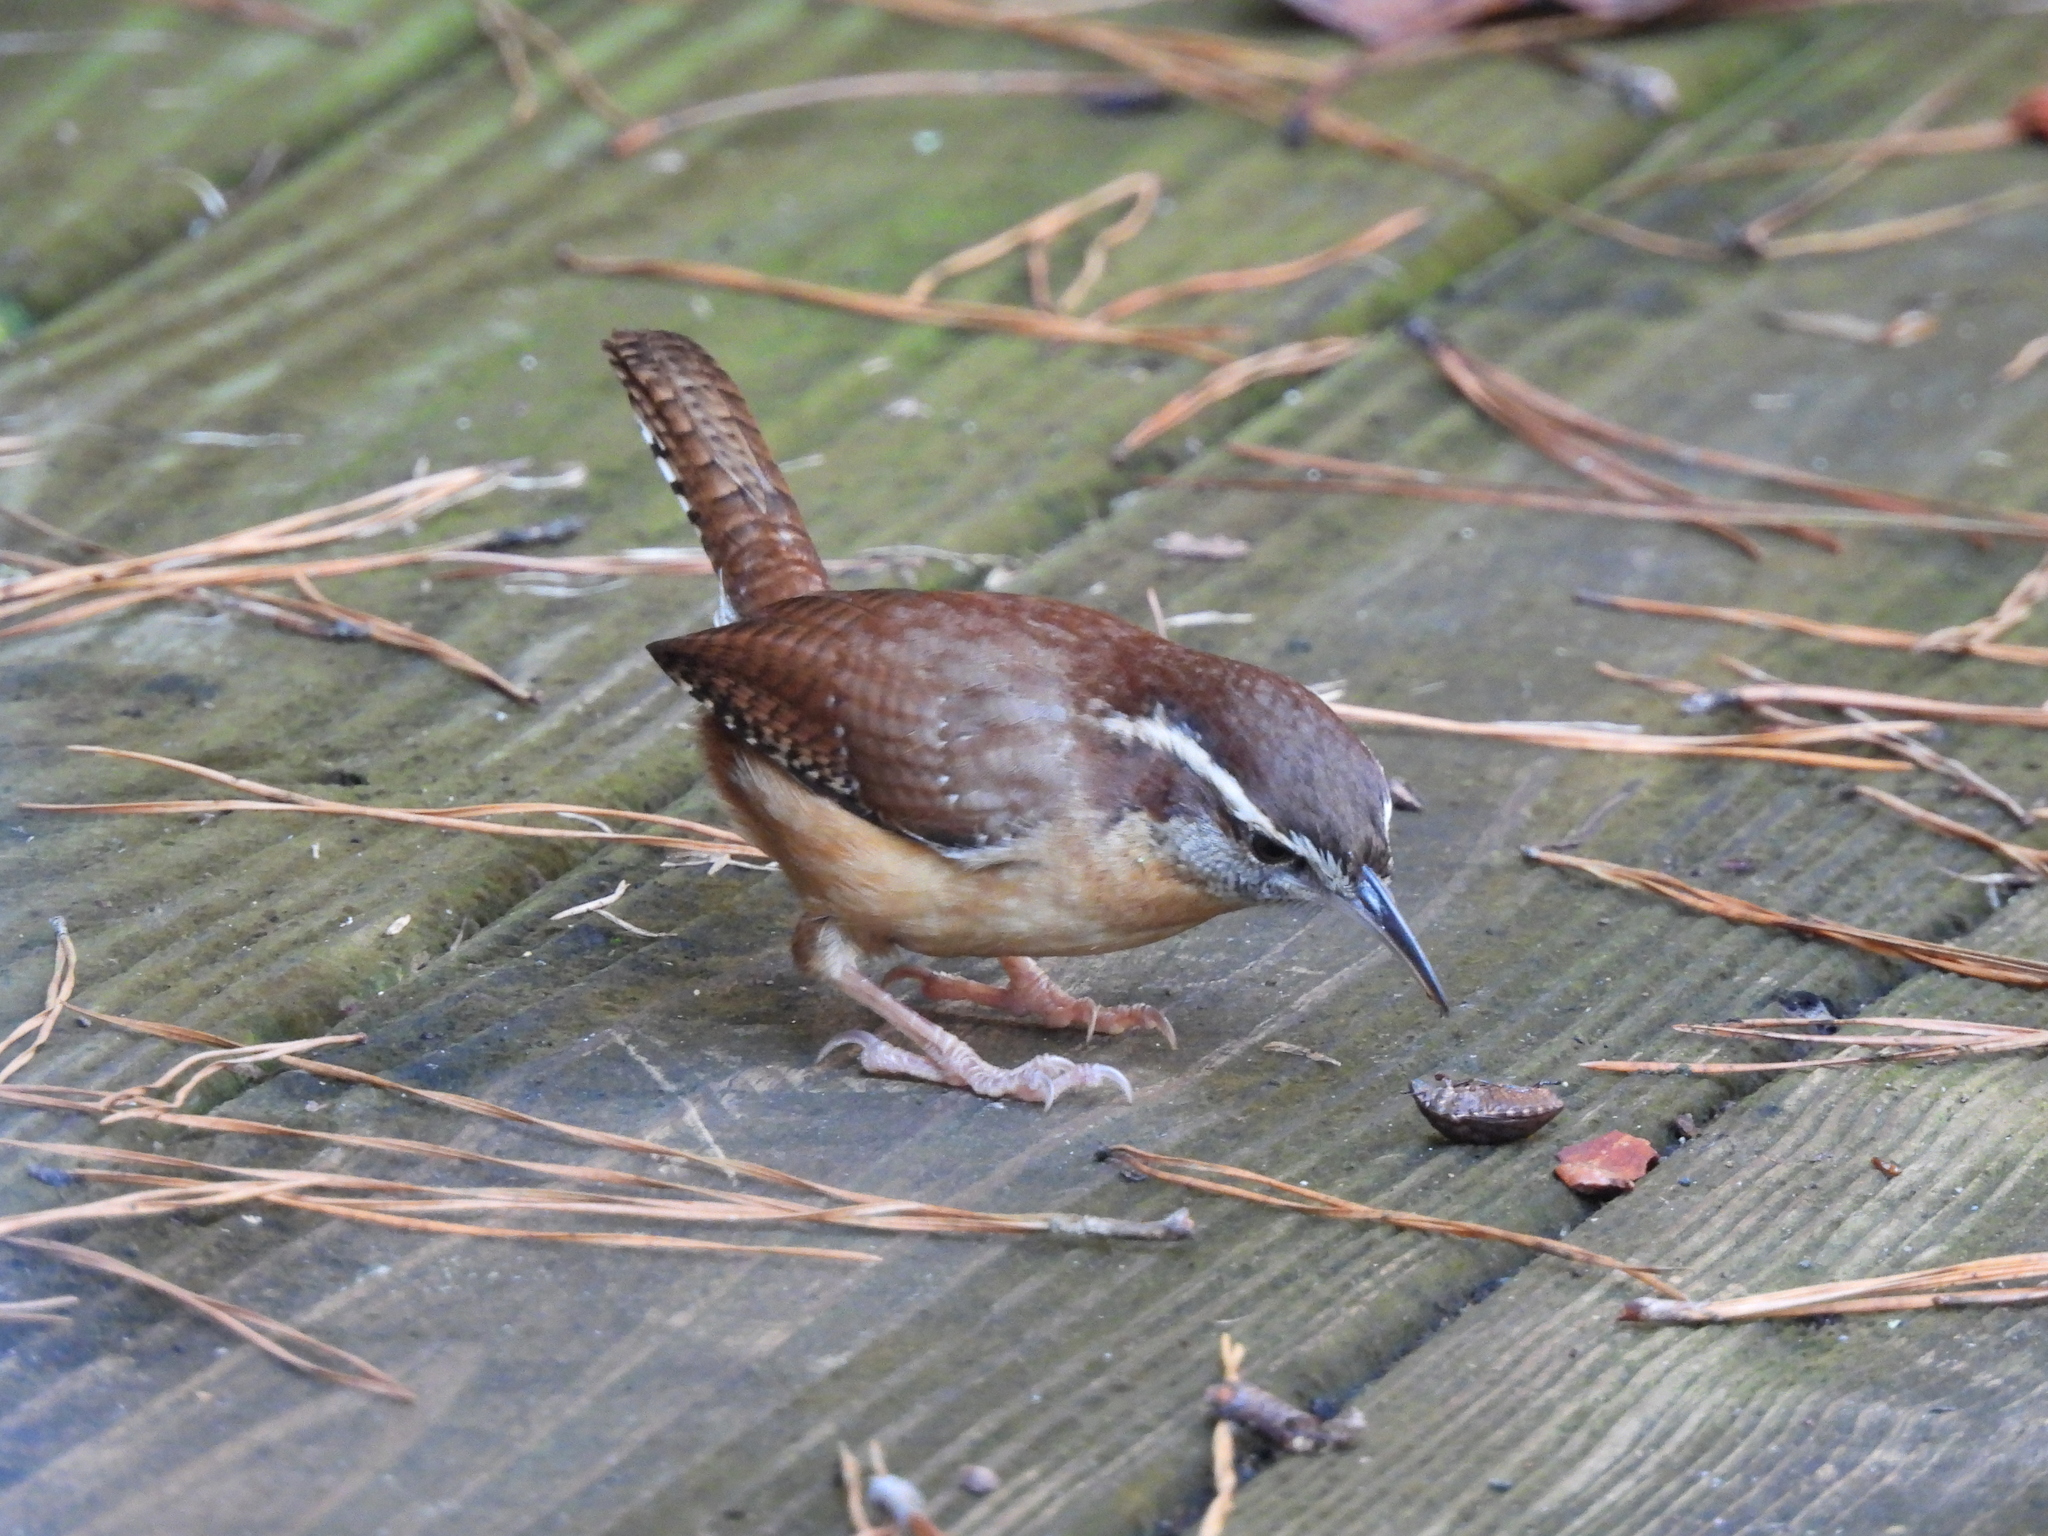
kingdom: Animalia
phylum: Chordata
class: Aves
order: Passeriformes
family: Troglodytidae
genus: Thryothorus
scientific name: Thryothorus ludovicianus
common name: Carolina wren
